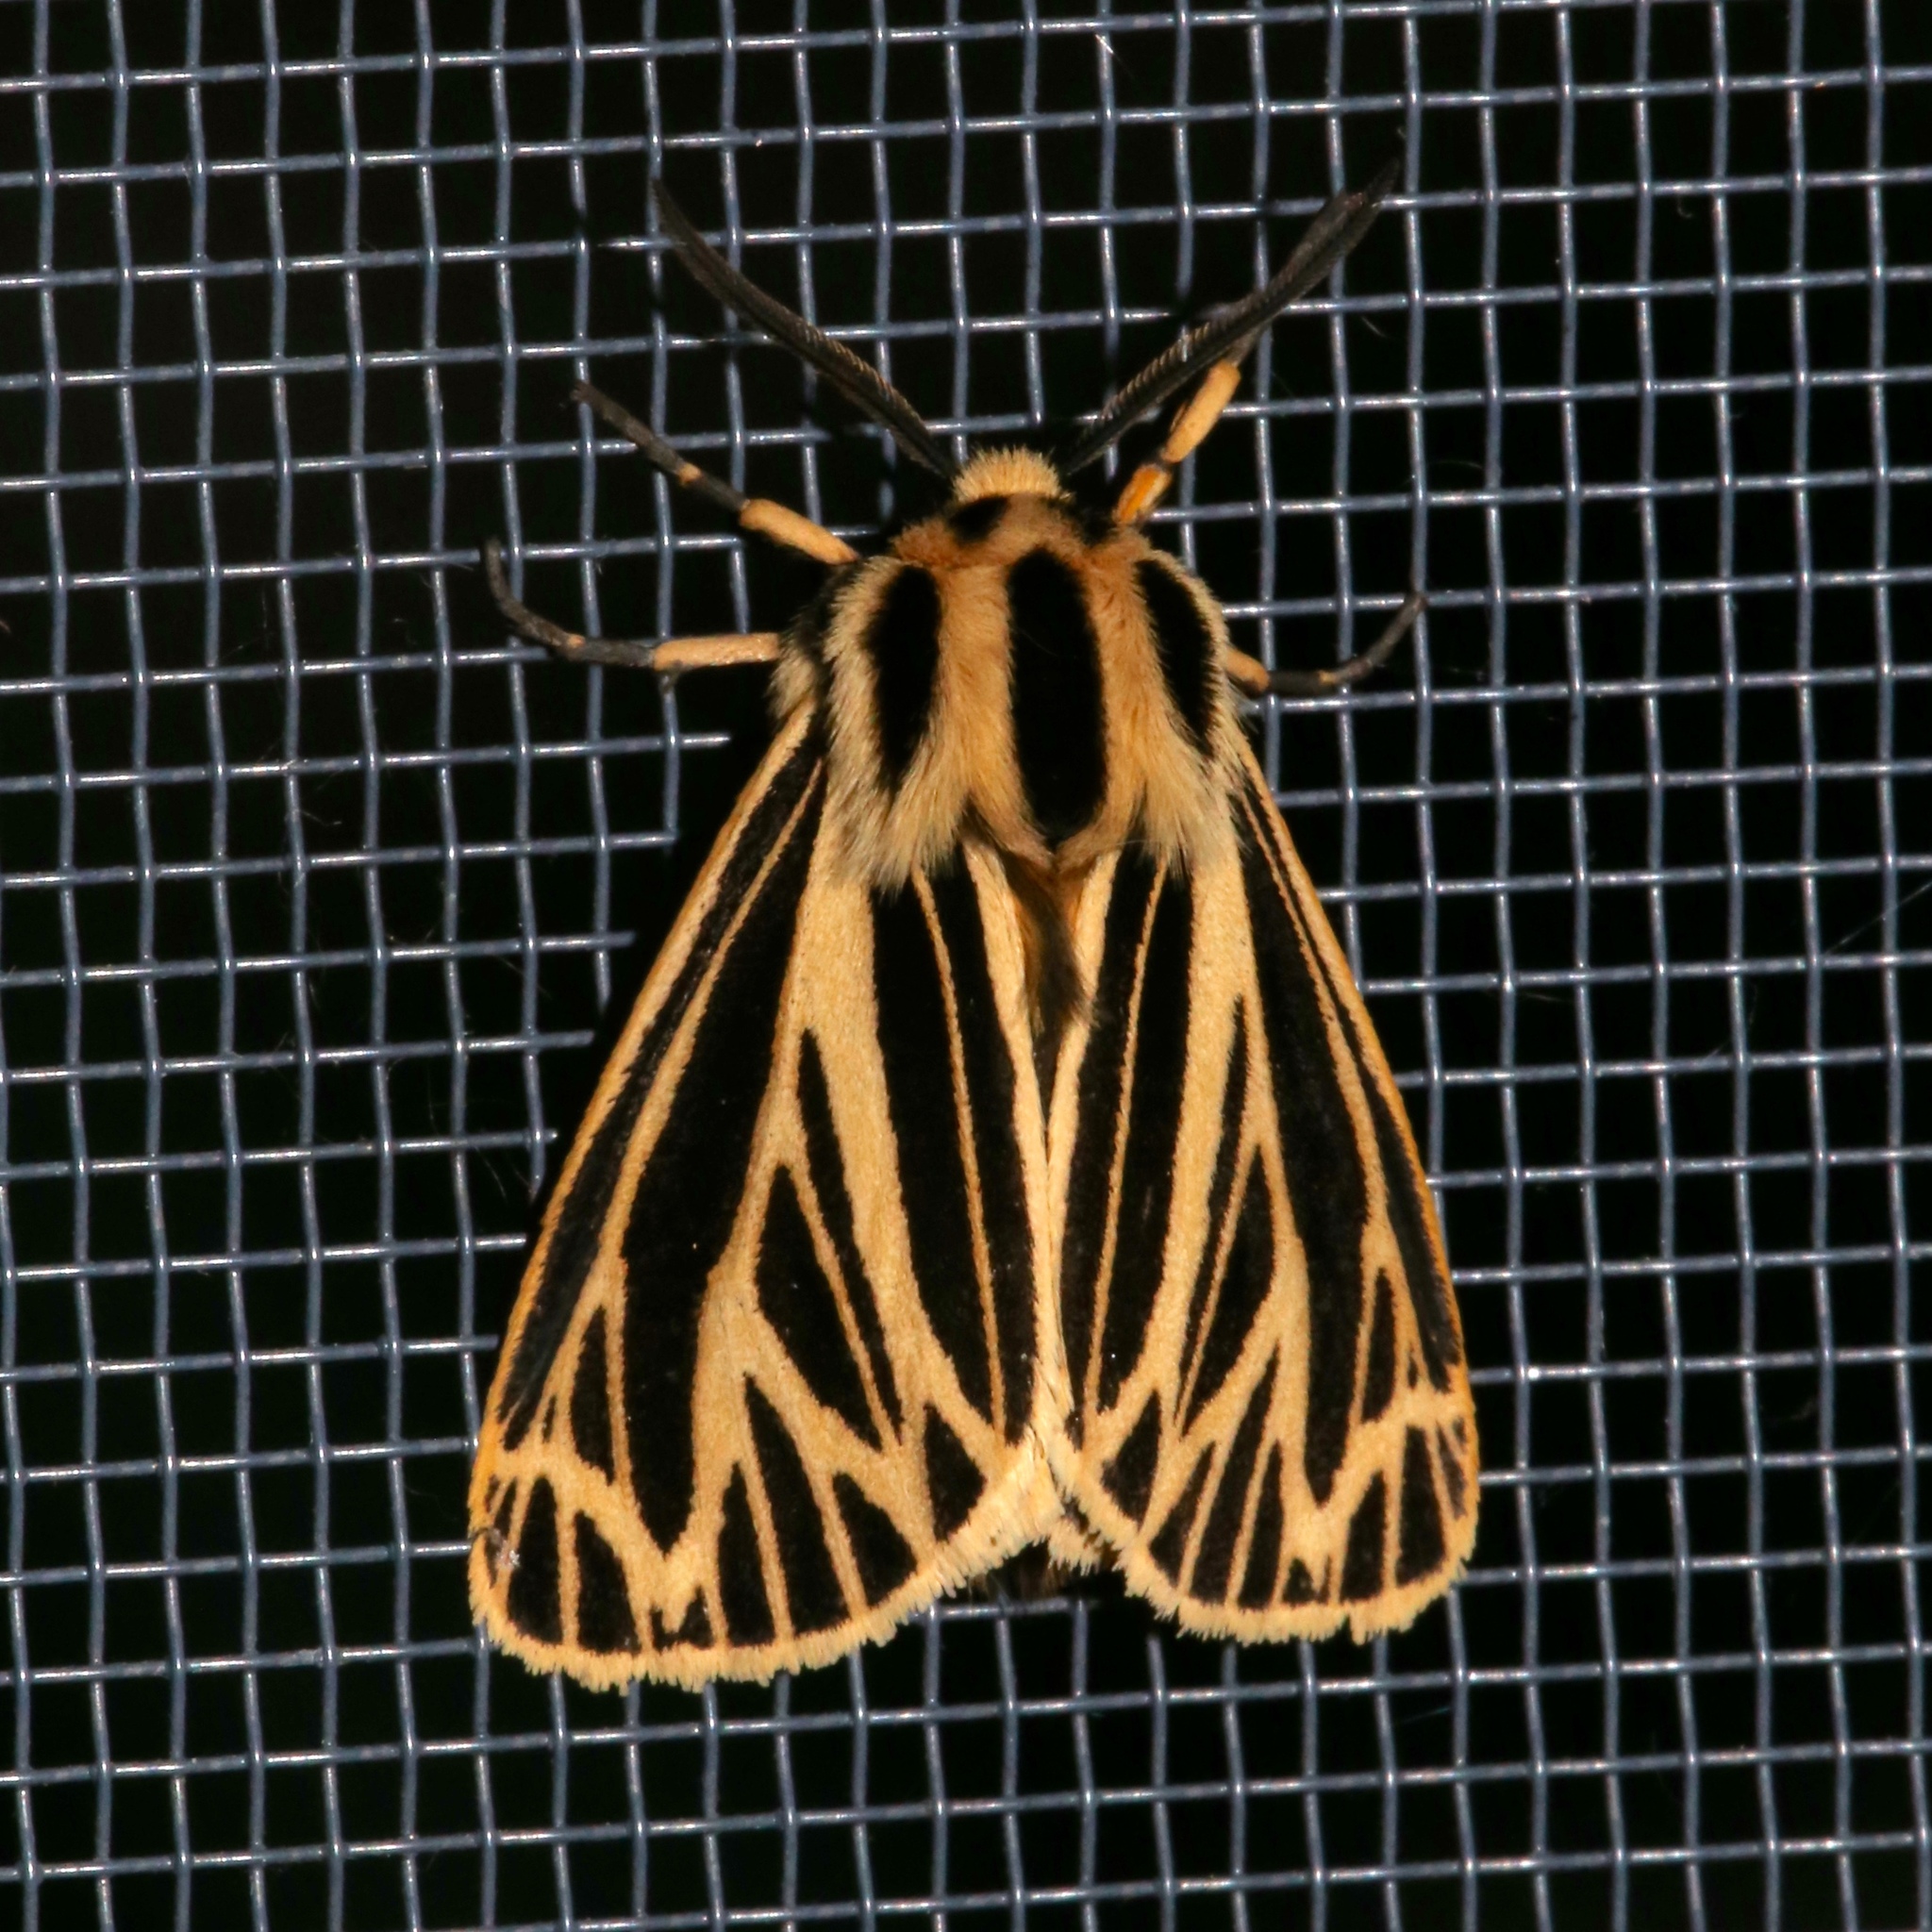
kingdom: Animalia
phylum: Arthropoda
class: Insecta
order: Lepidoptera
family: Erebidae
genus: Grammia
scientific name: Grammia virguncula
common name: Little tiger moth
